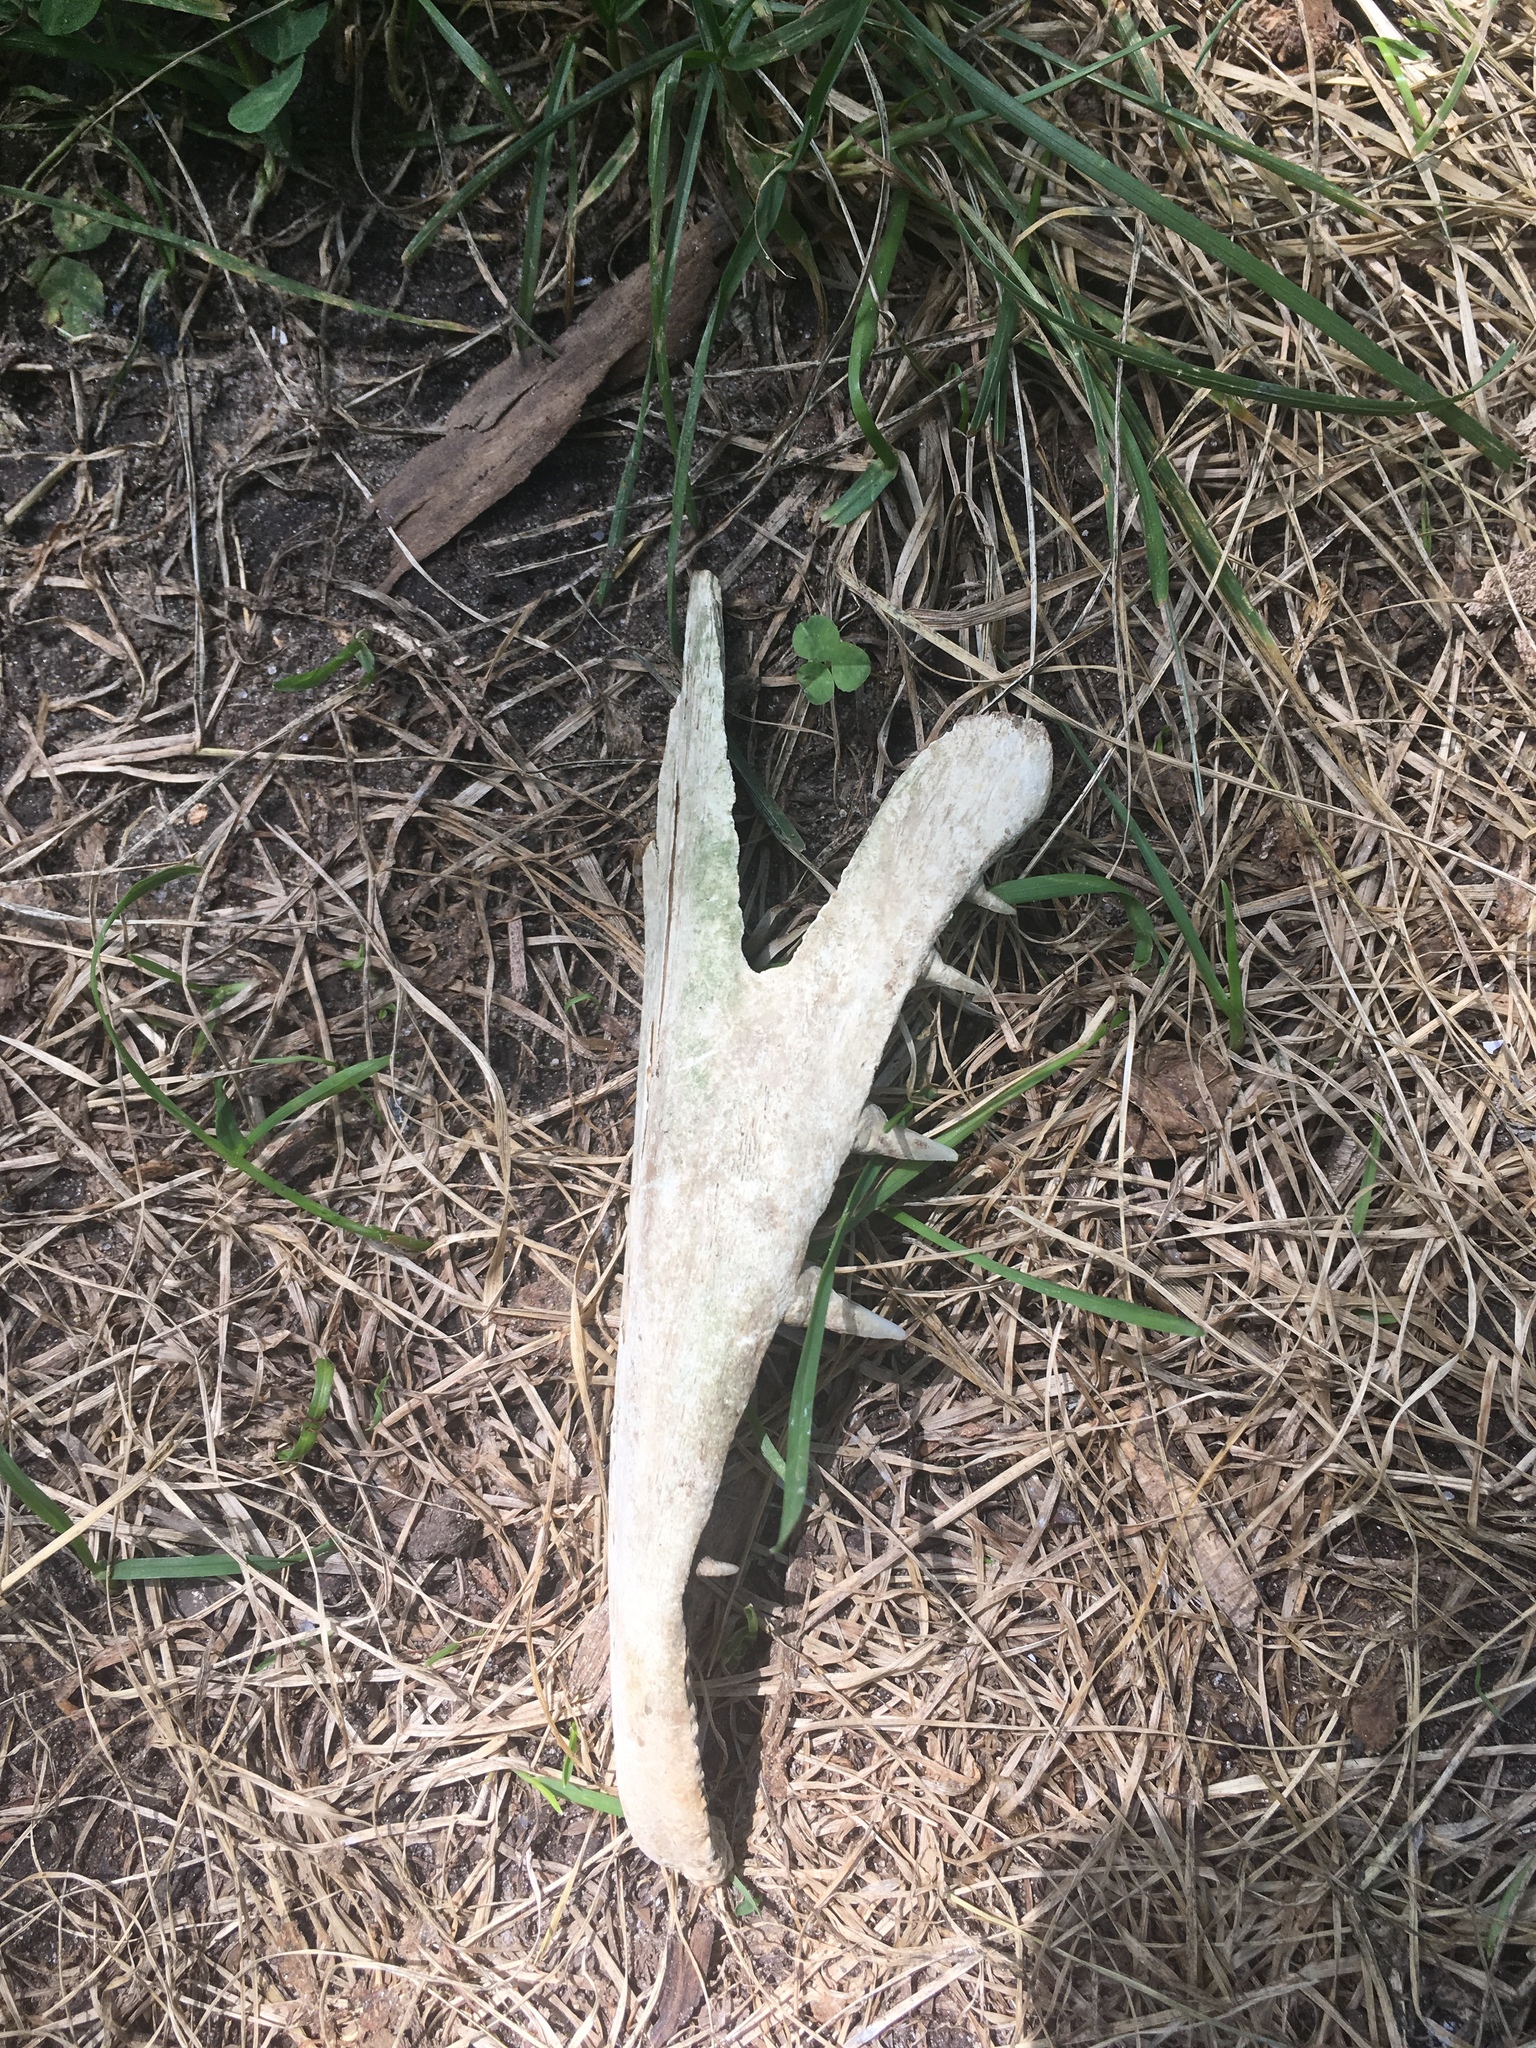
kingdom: Animalia
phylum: Chordata
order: Esociformes
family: Esocidae
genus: Esox
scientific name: Esox lucius
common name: Northern pike
